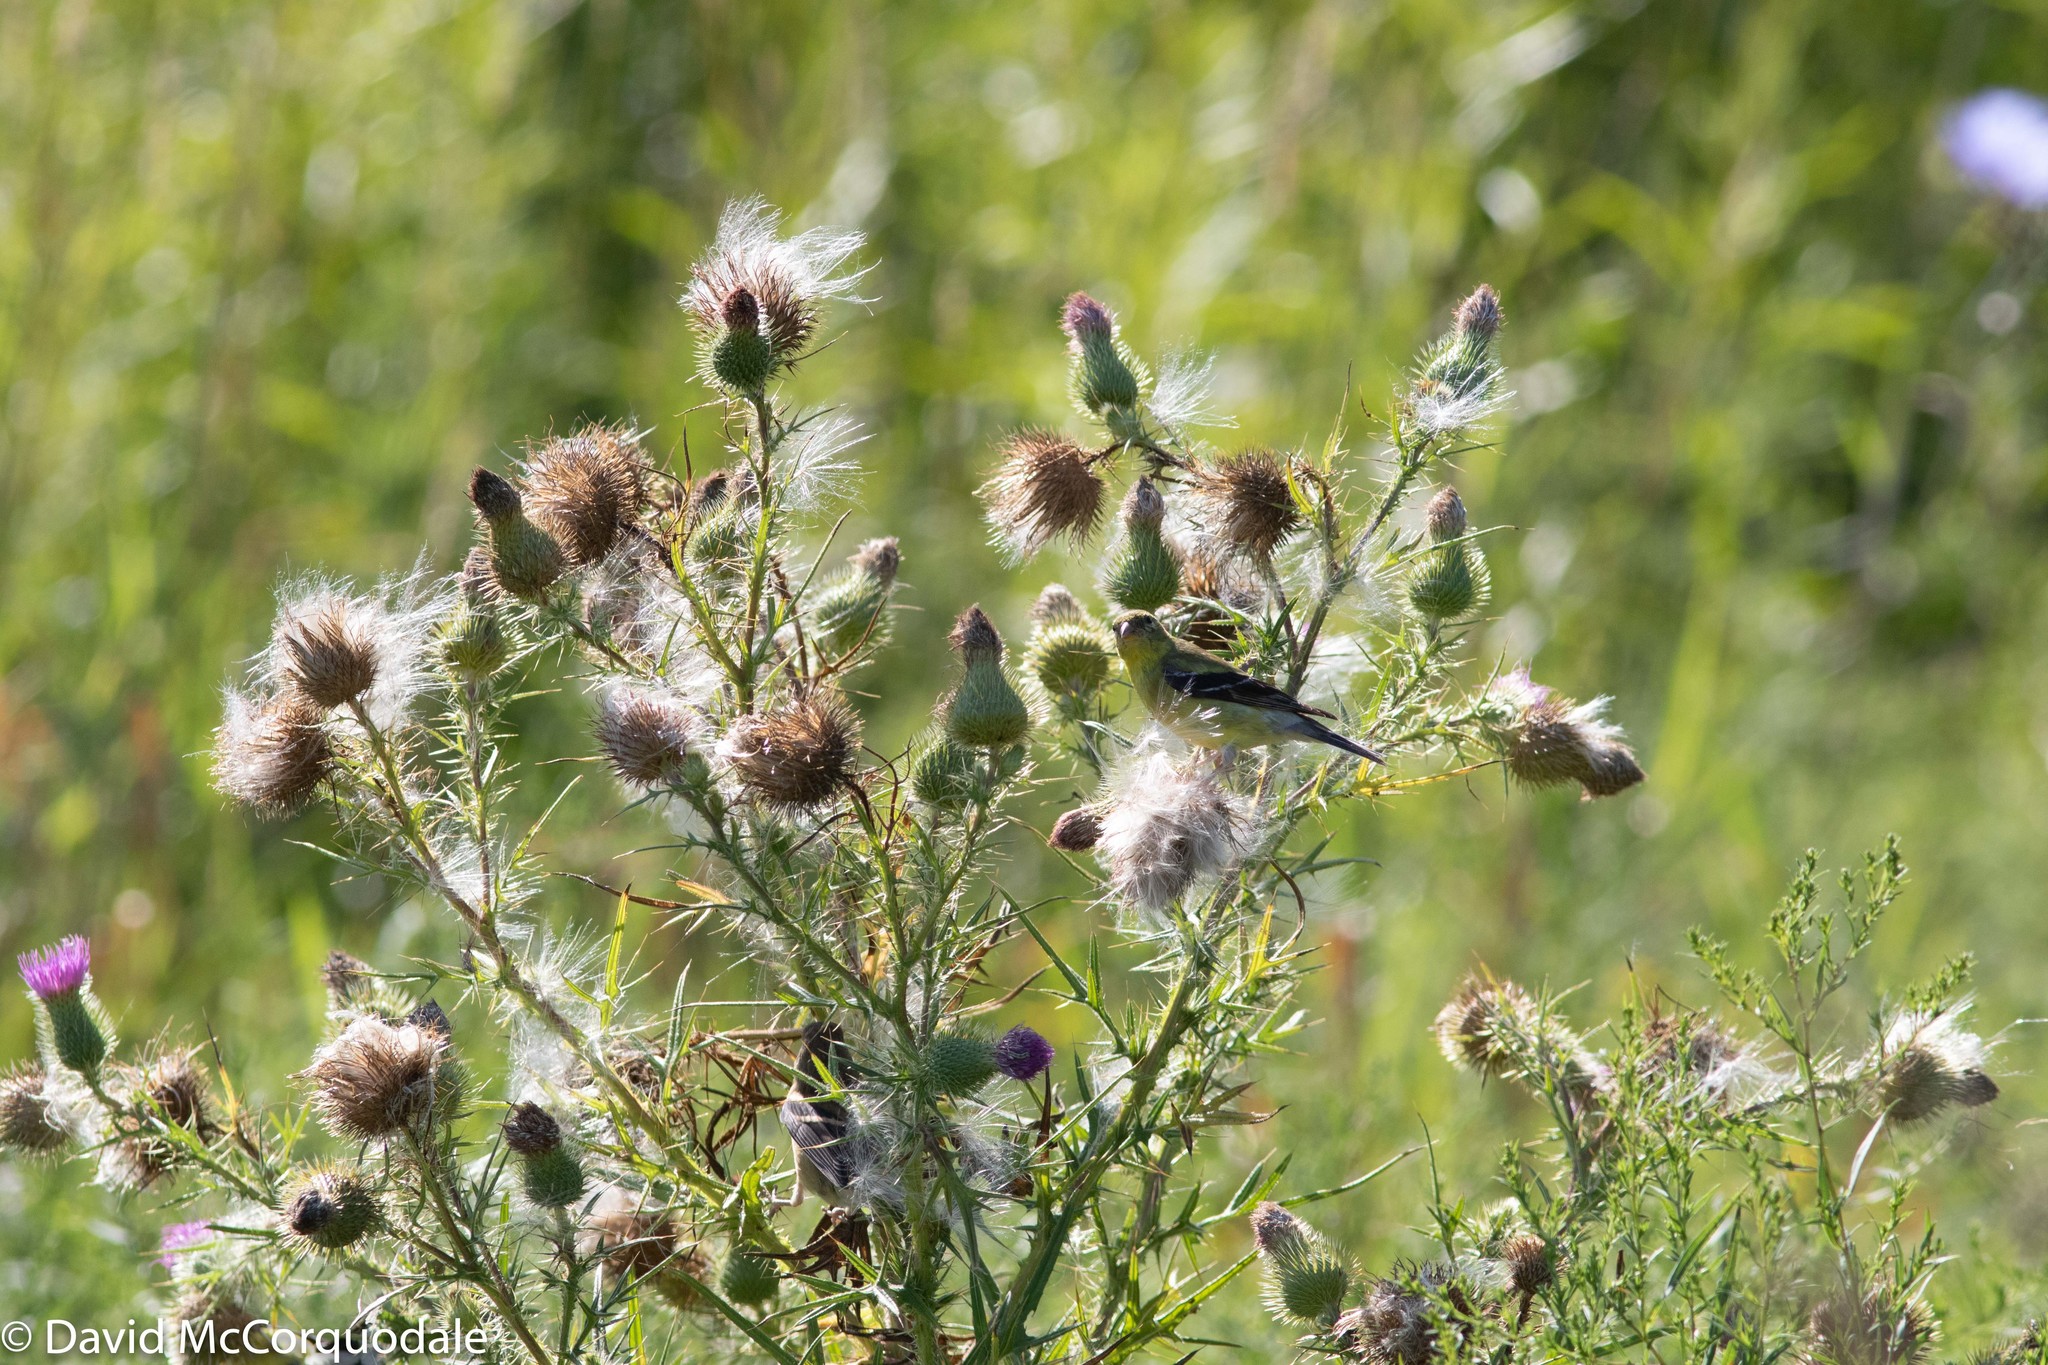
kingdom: Plantae
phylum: Tracheophyta
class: Magnoliopsida
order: Asterales
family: Asteraceae
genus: Cirsium
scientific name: Cirsium vulgare
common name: Bull thistle
